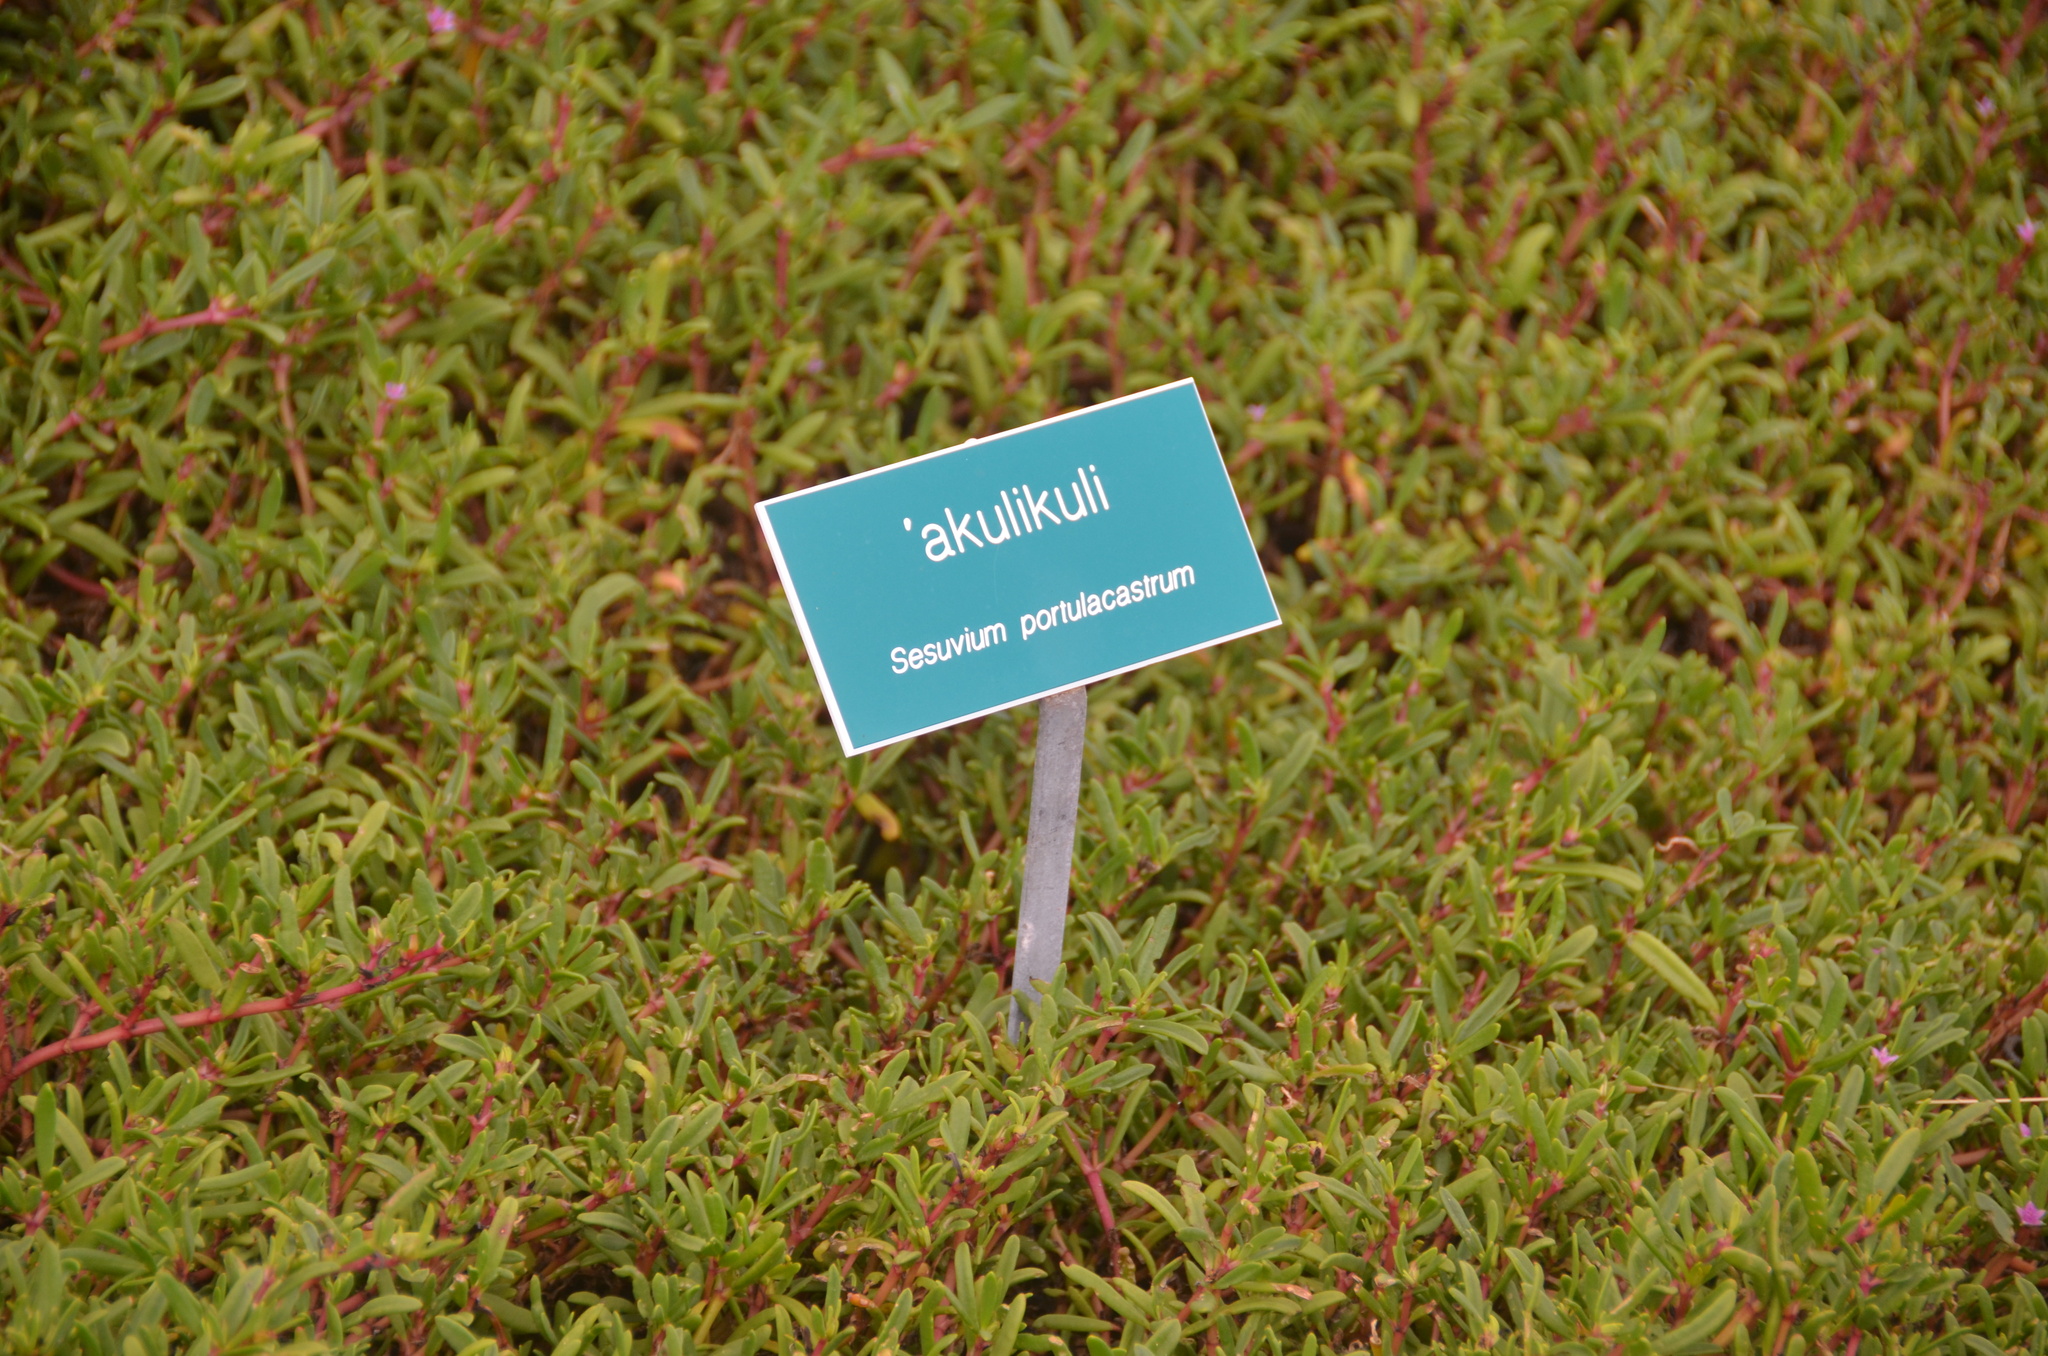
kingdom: Plantae
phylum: Tracheophyta
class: Magnoliopsida
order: Caryophyllales
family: Aizoaceae
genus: Sesuvium
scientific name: Sesuvium portulacastrum
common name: Sea-purslane
